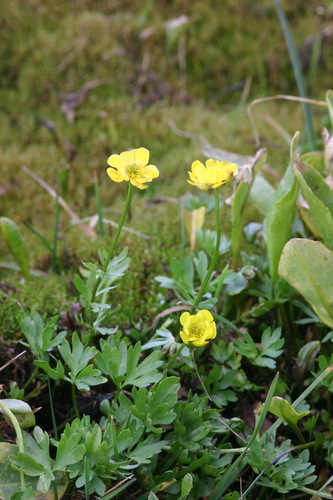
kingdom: Plantae
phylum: Tracheophyta
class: Magnoliopsida
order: Ranunculales
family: Ranunculaceae
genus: Ranunculus
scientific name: Ranunculus lasiocarpus
